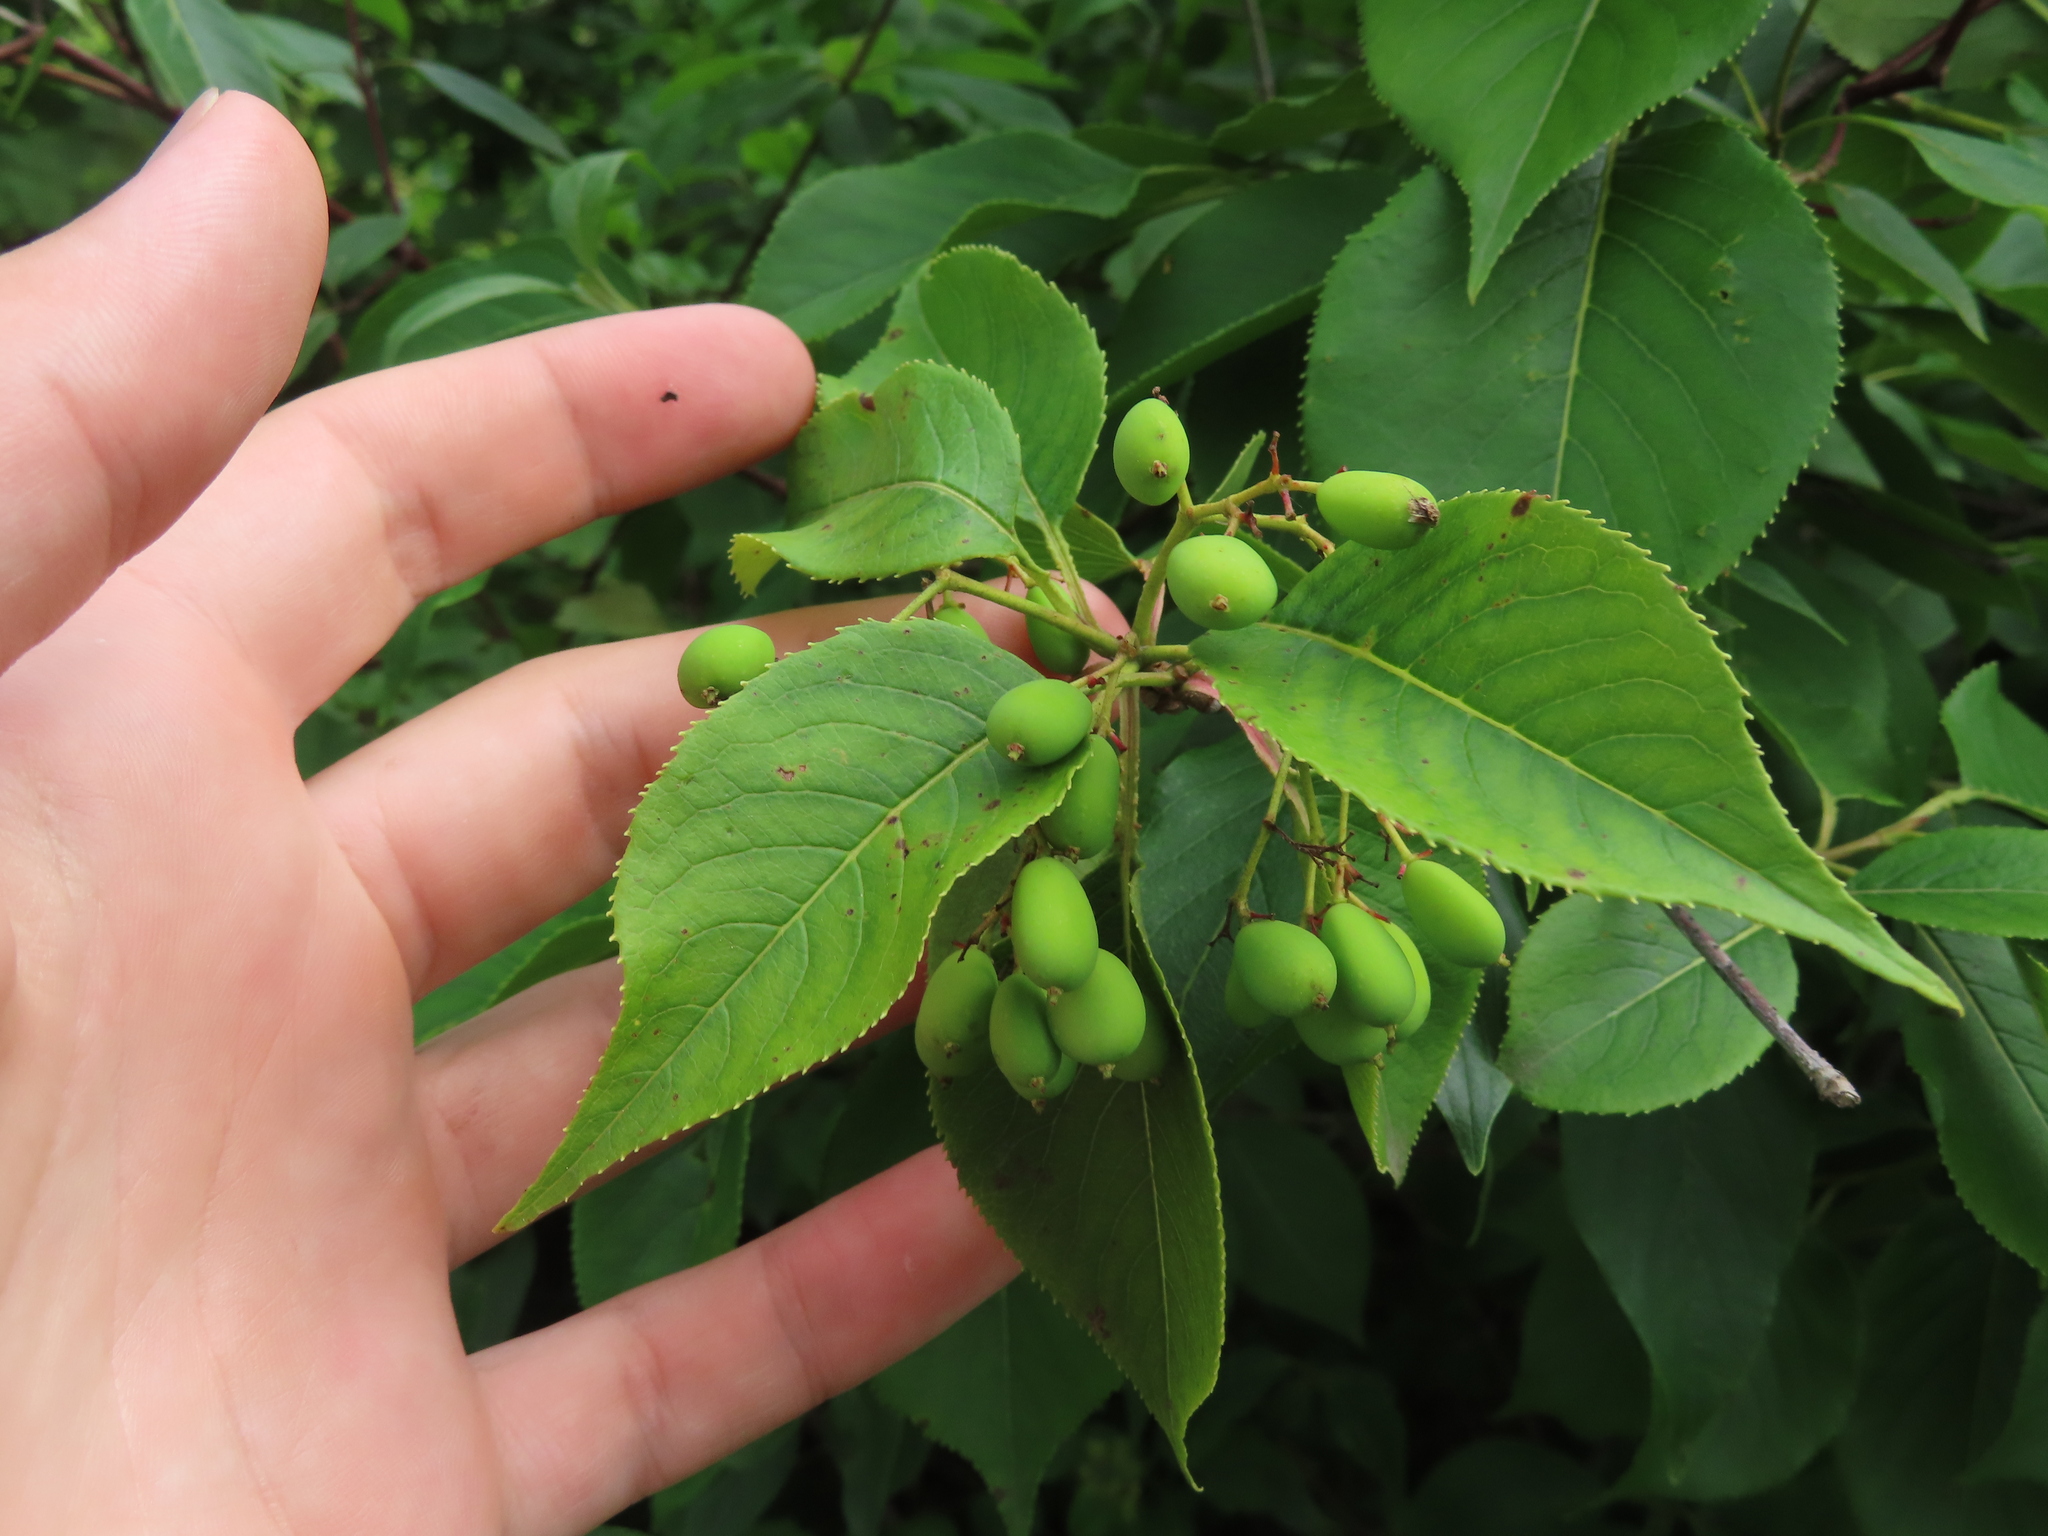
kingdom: Plantae
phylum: Tracheophyta
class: Magnoliopsida
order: Dipsacales
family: Viburnaceae
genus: Viburnum
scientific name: Viburnum lentago
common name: Black haw
